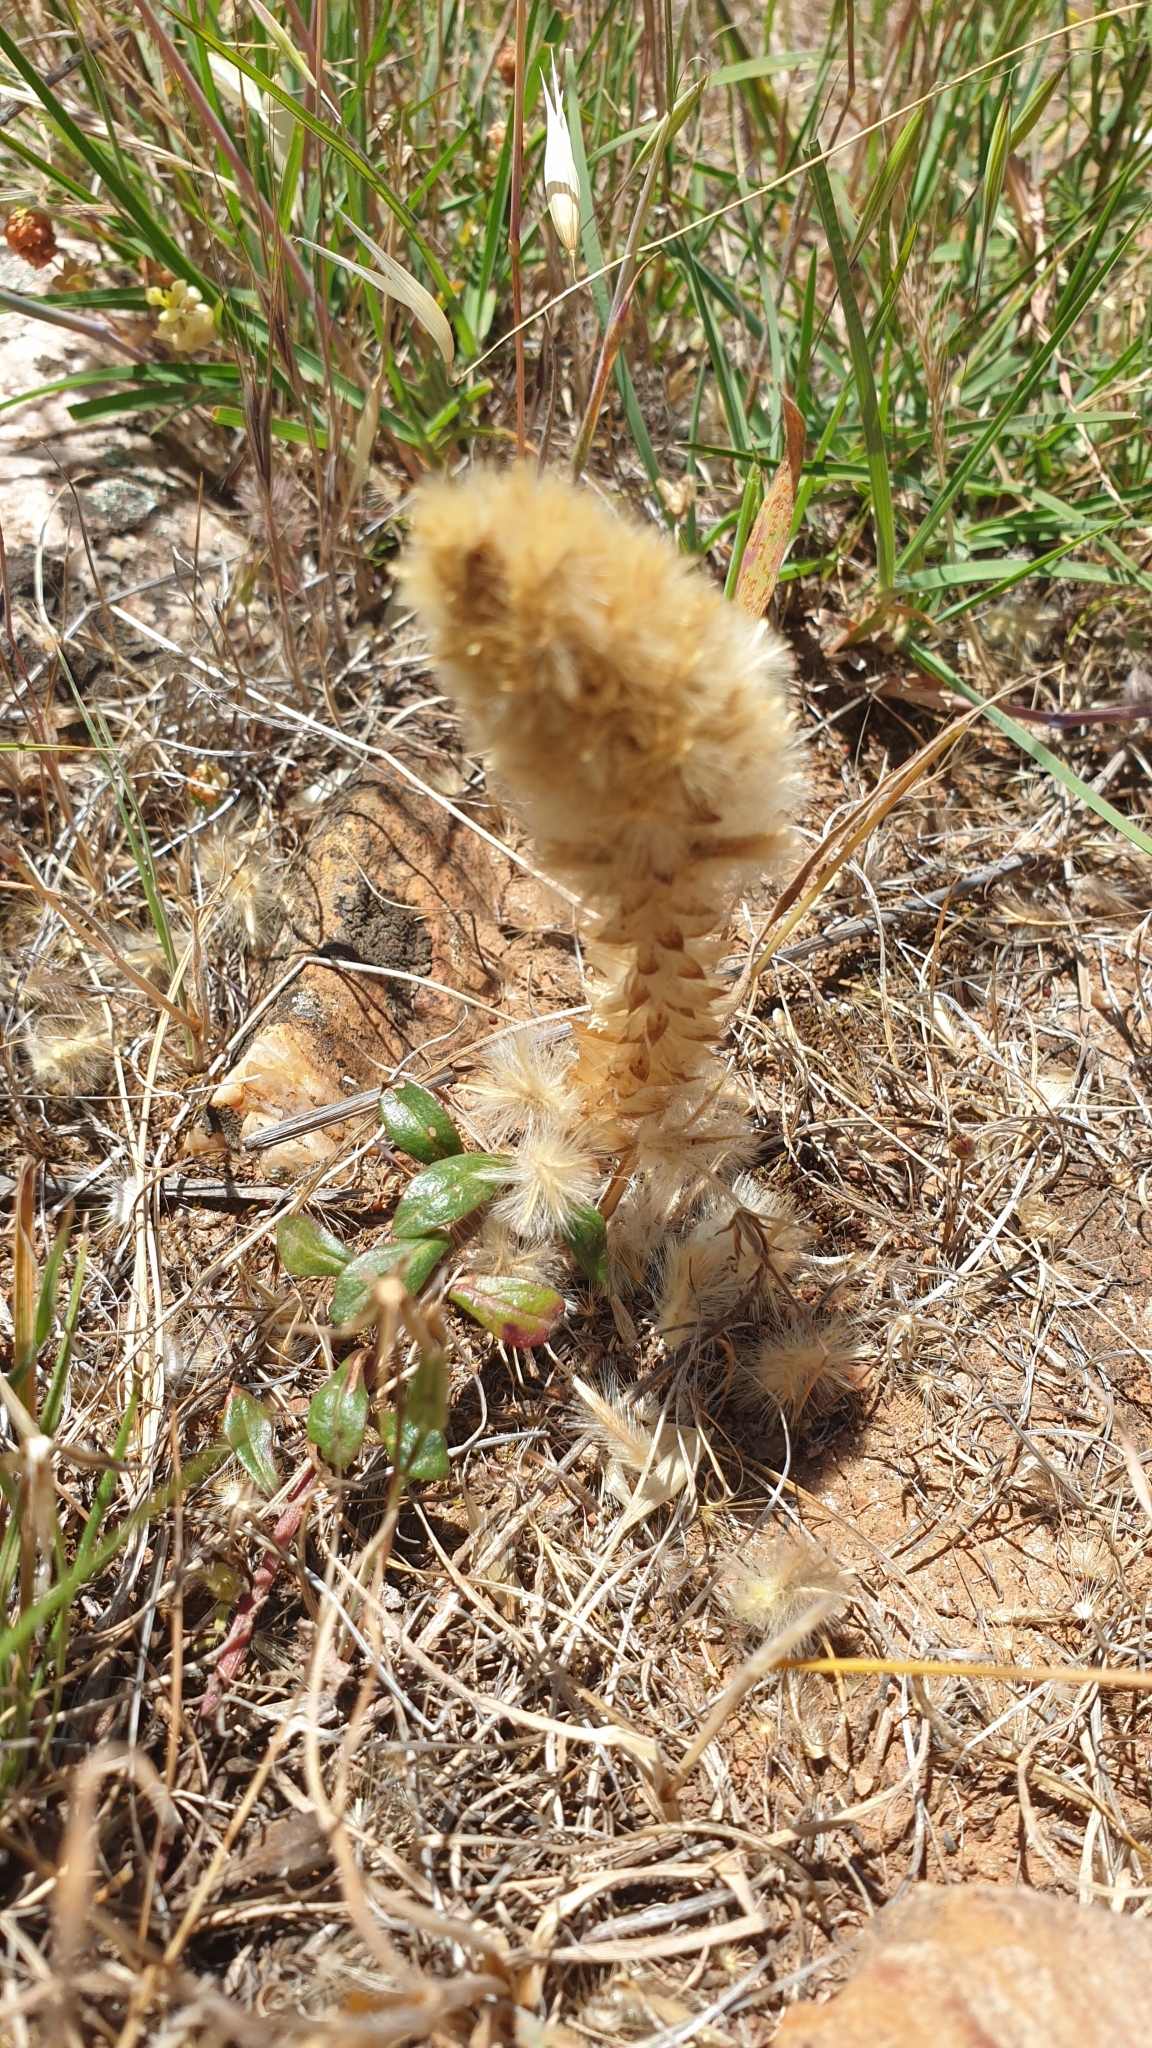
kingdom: Plantae
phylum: Tracheophyta
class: Magnoliopsida
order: Caryophyllales
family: Amaranthaceae
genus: Ptilotus
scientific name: Ptilotus spathulatus
